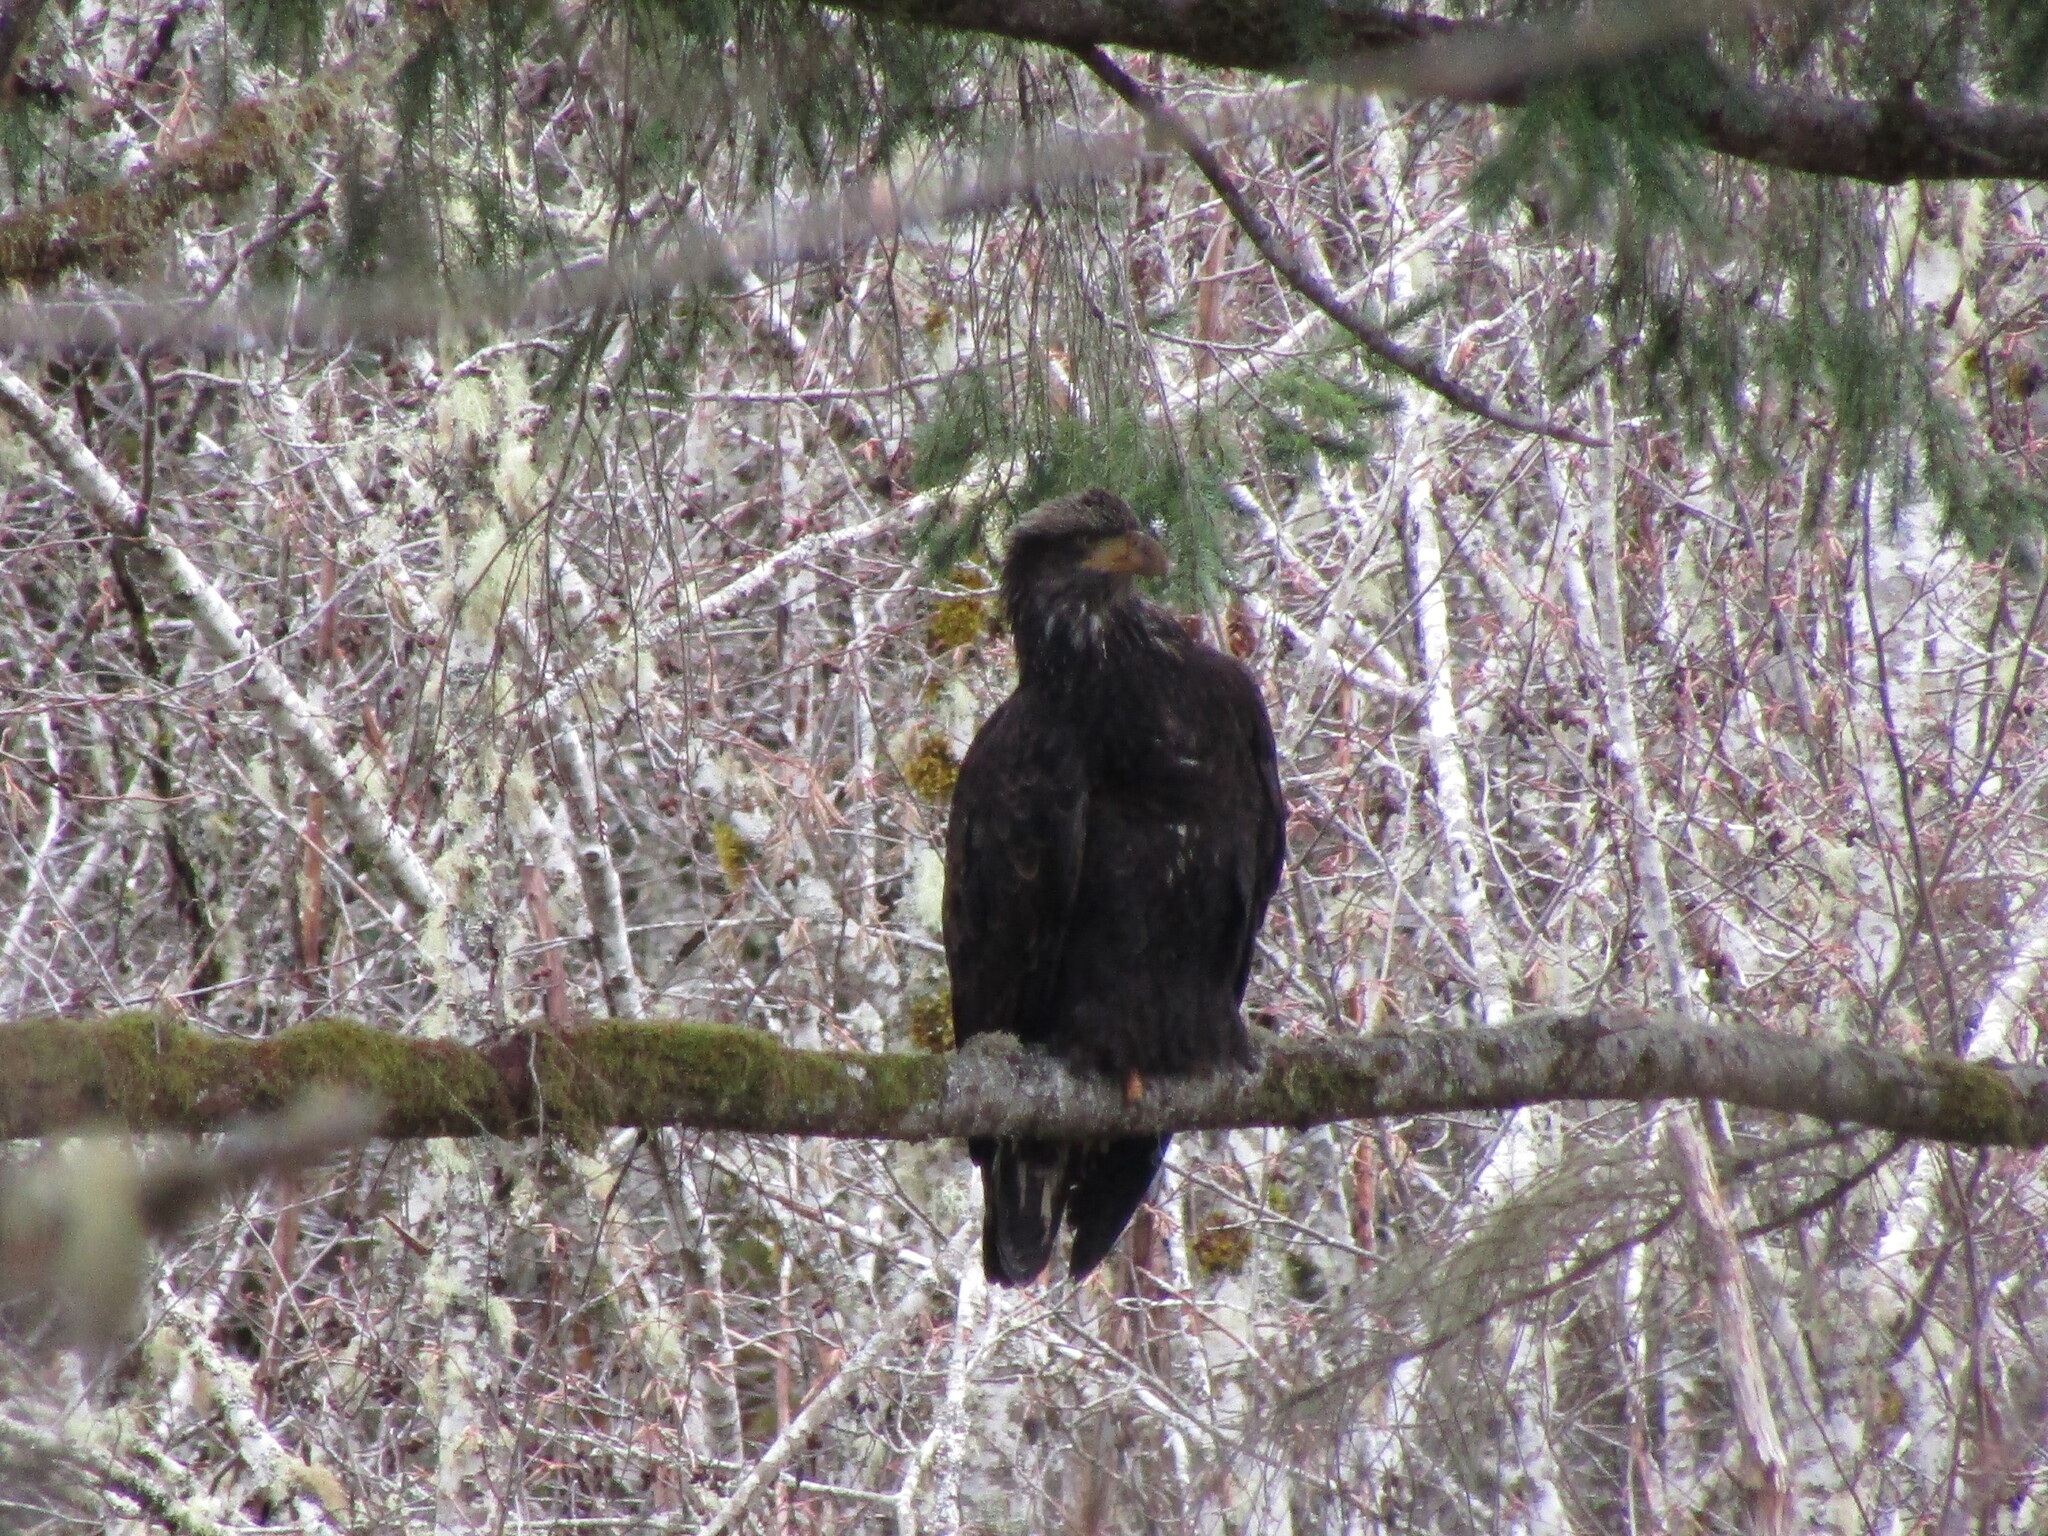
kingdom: Animalia
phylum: Chordata
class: Aves
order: Accipitriformes
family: Accipitridae
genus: Haliaeetus
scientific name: Haliaeetus leucocephalus
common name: Bald eagle
